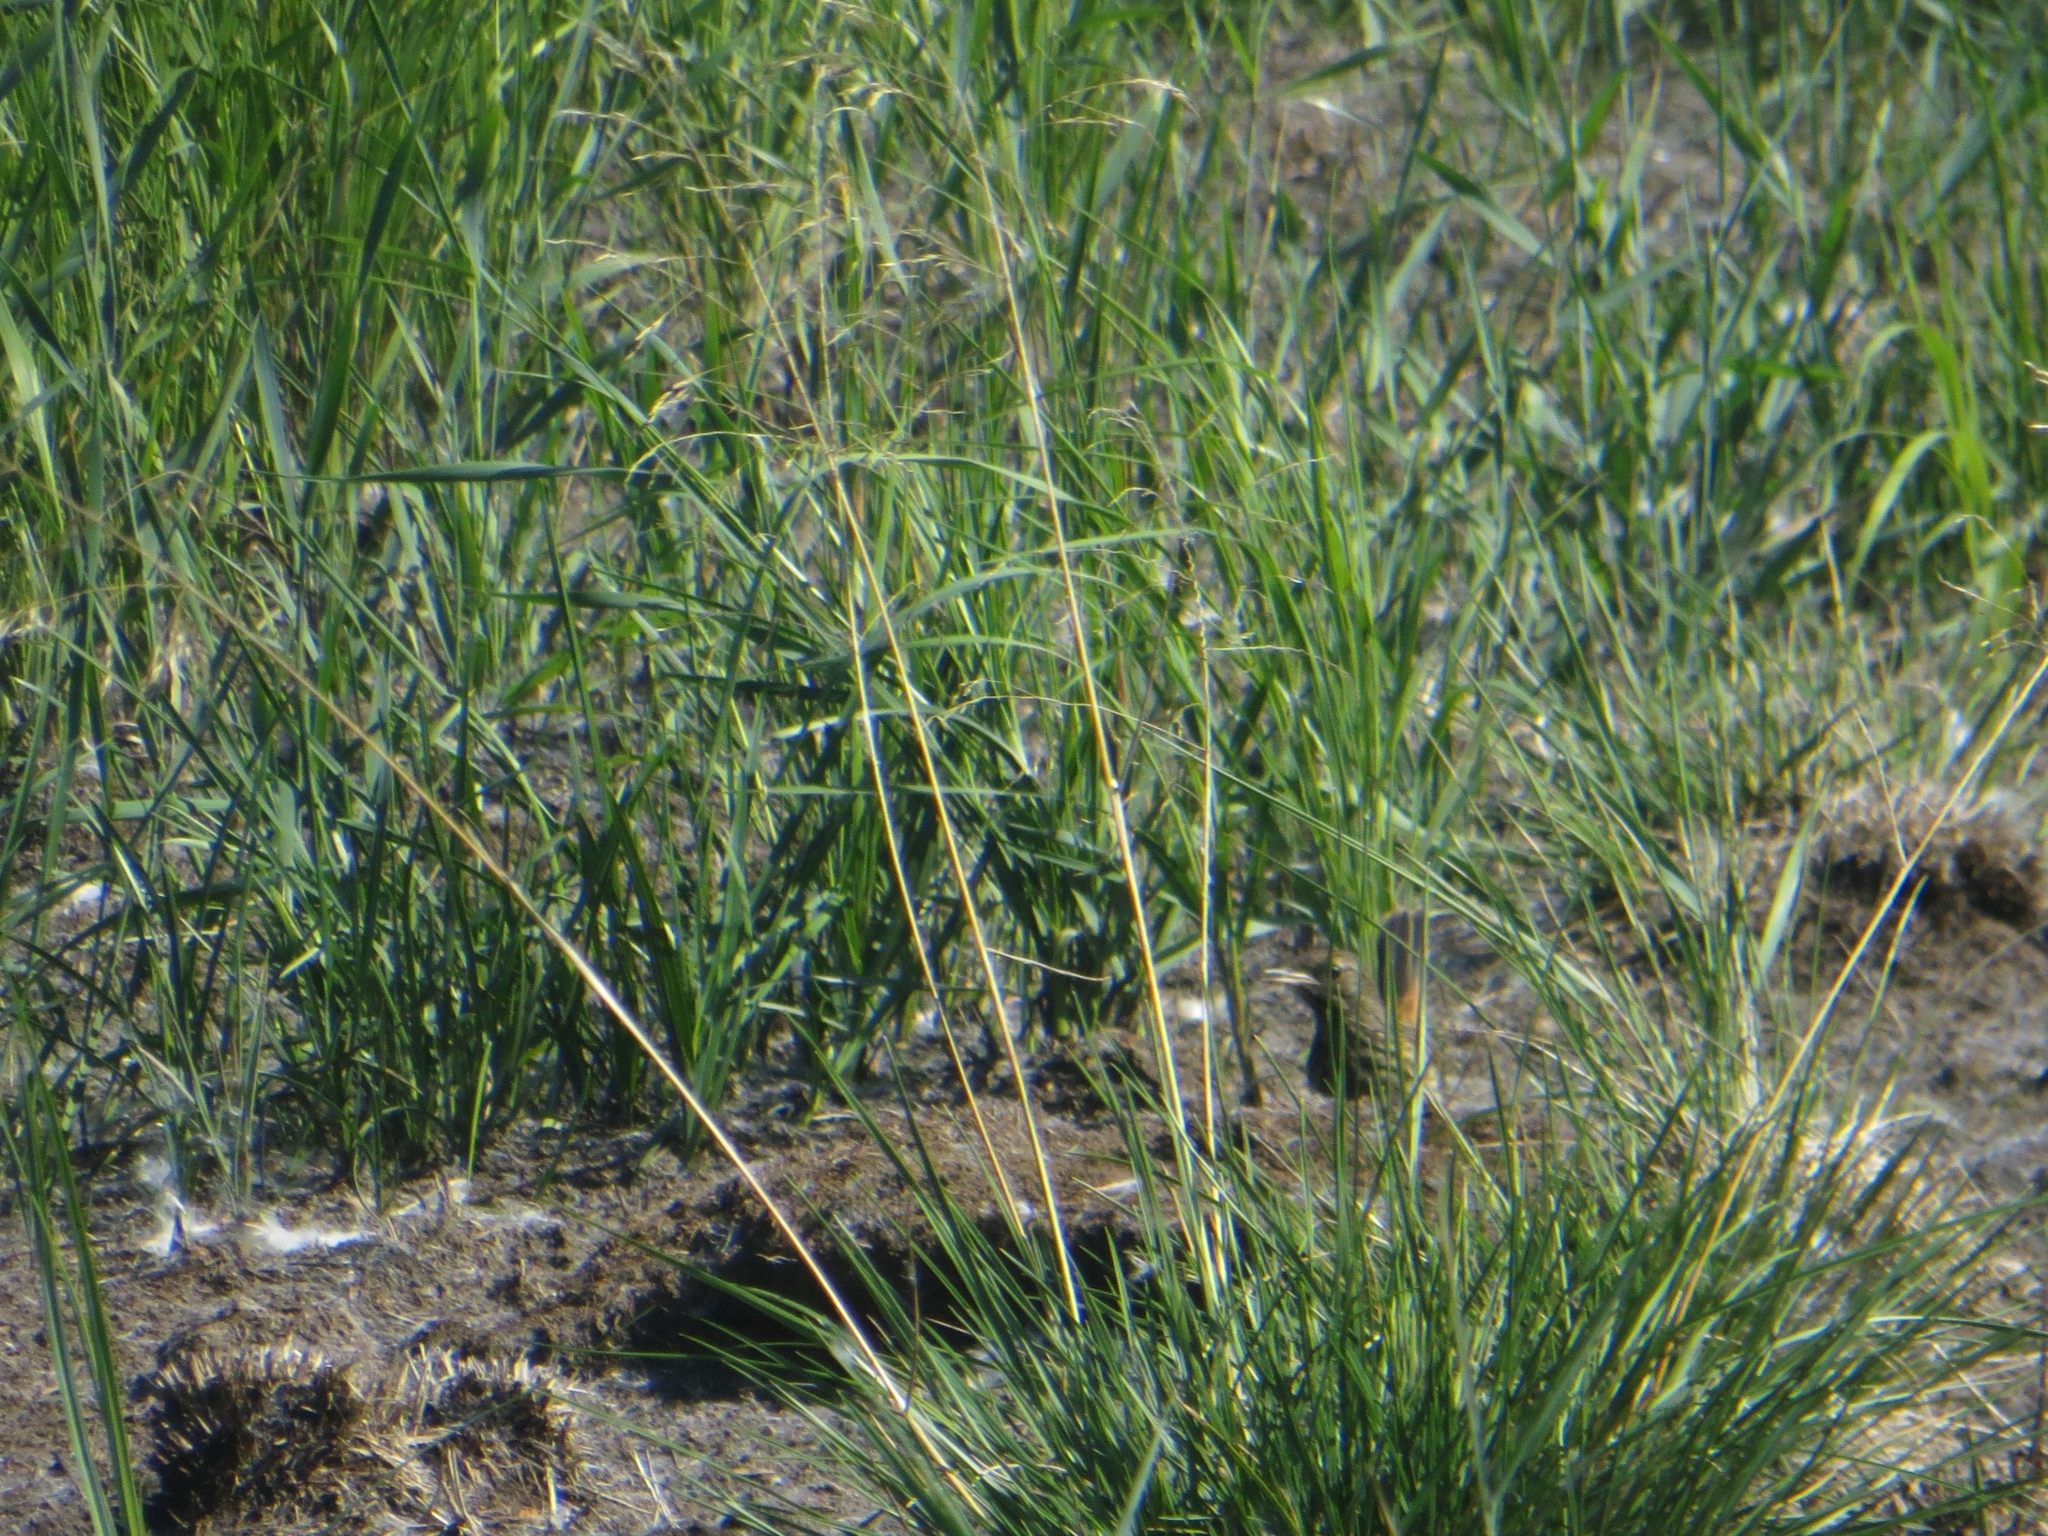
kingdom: Animalia
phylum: Chordata
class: Aves
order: Passeriformes
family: Muscicapidae
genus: Luscinia
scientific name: Luscinia svecica
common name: Bluethroat
